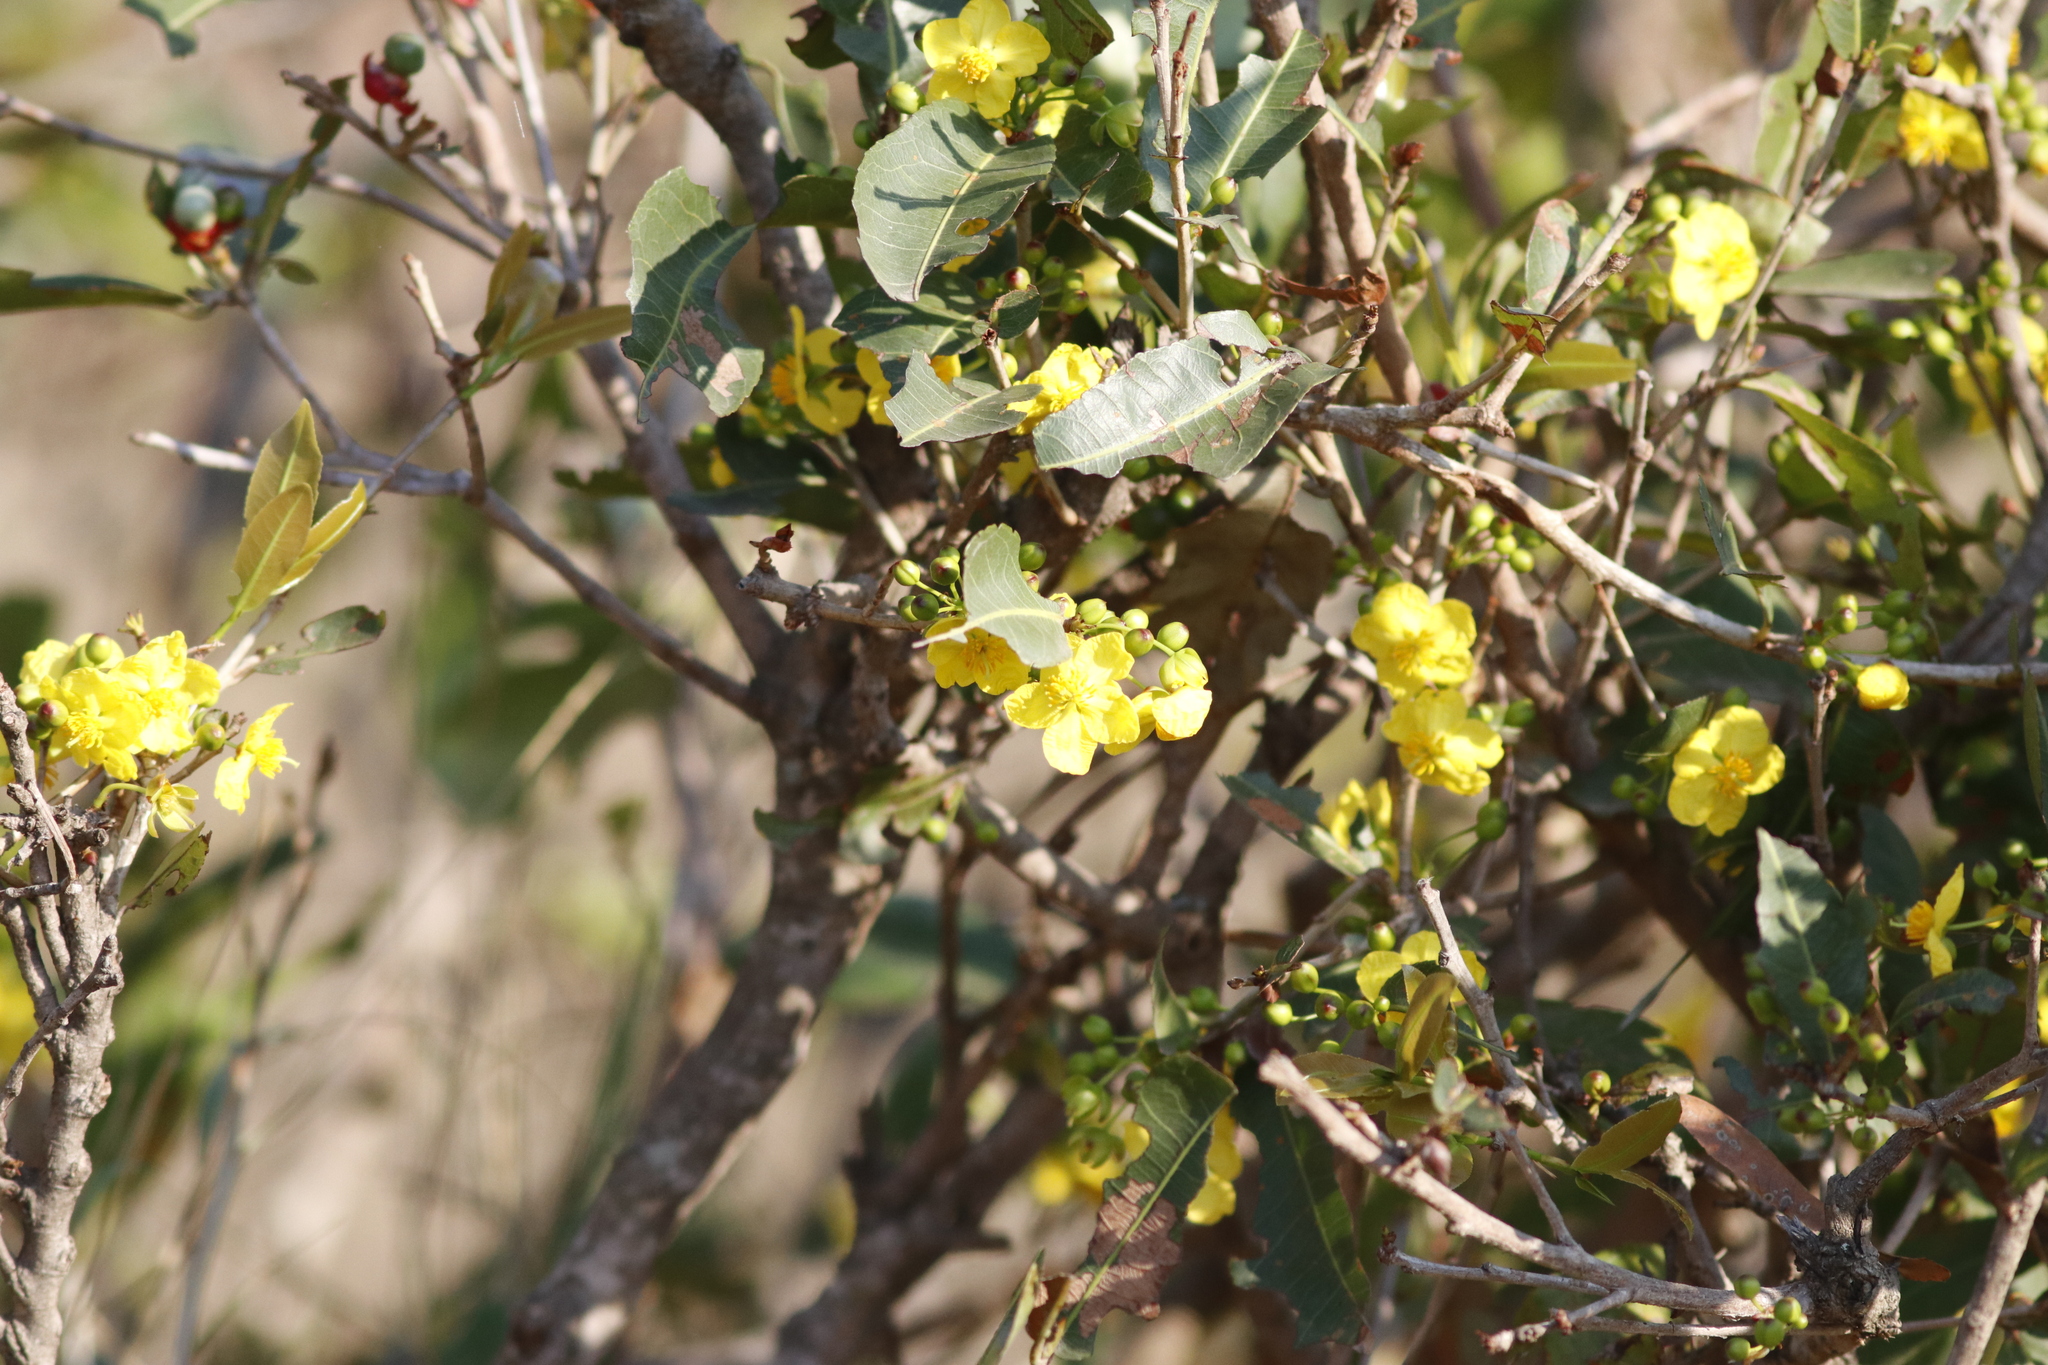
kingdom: Animalia
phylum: Chordata
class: Aves
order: Passeriformes
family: Cisticolidae
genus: Camaroptera
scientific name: Camaroptera brachyura
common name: Green-backed camaroptera
